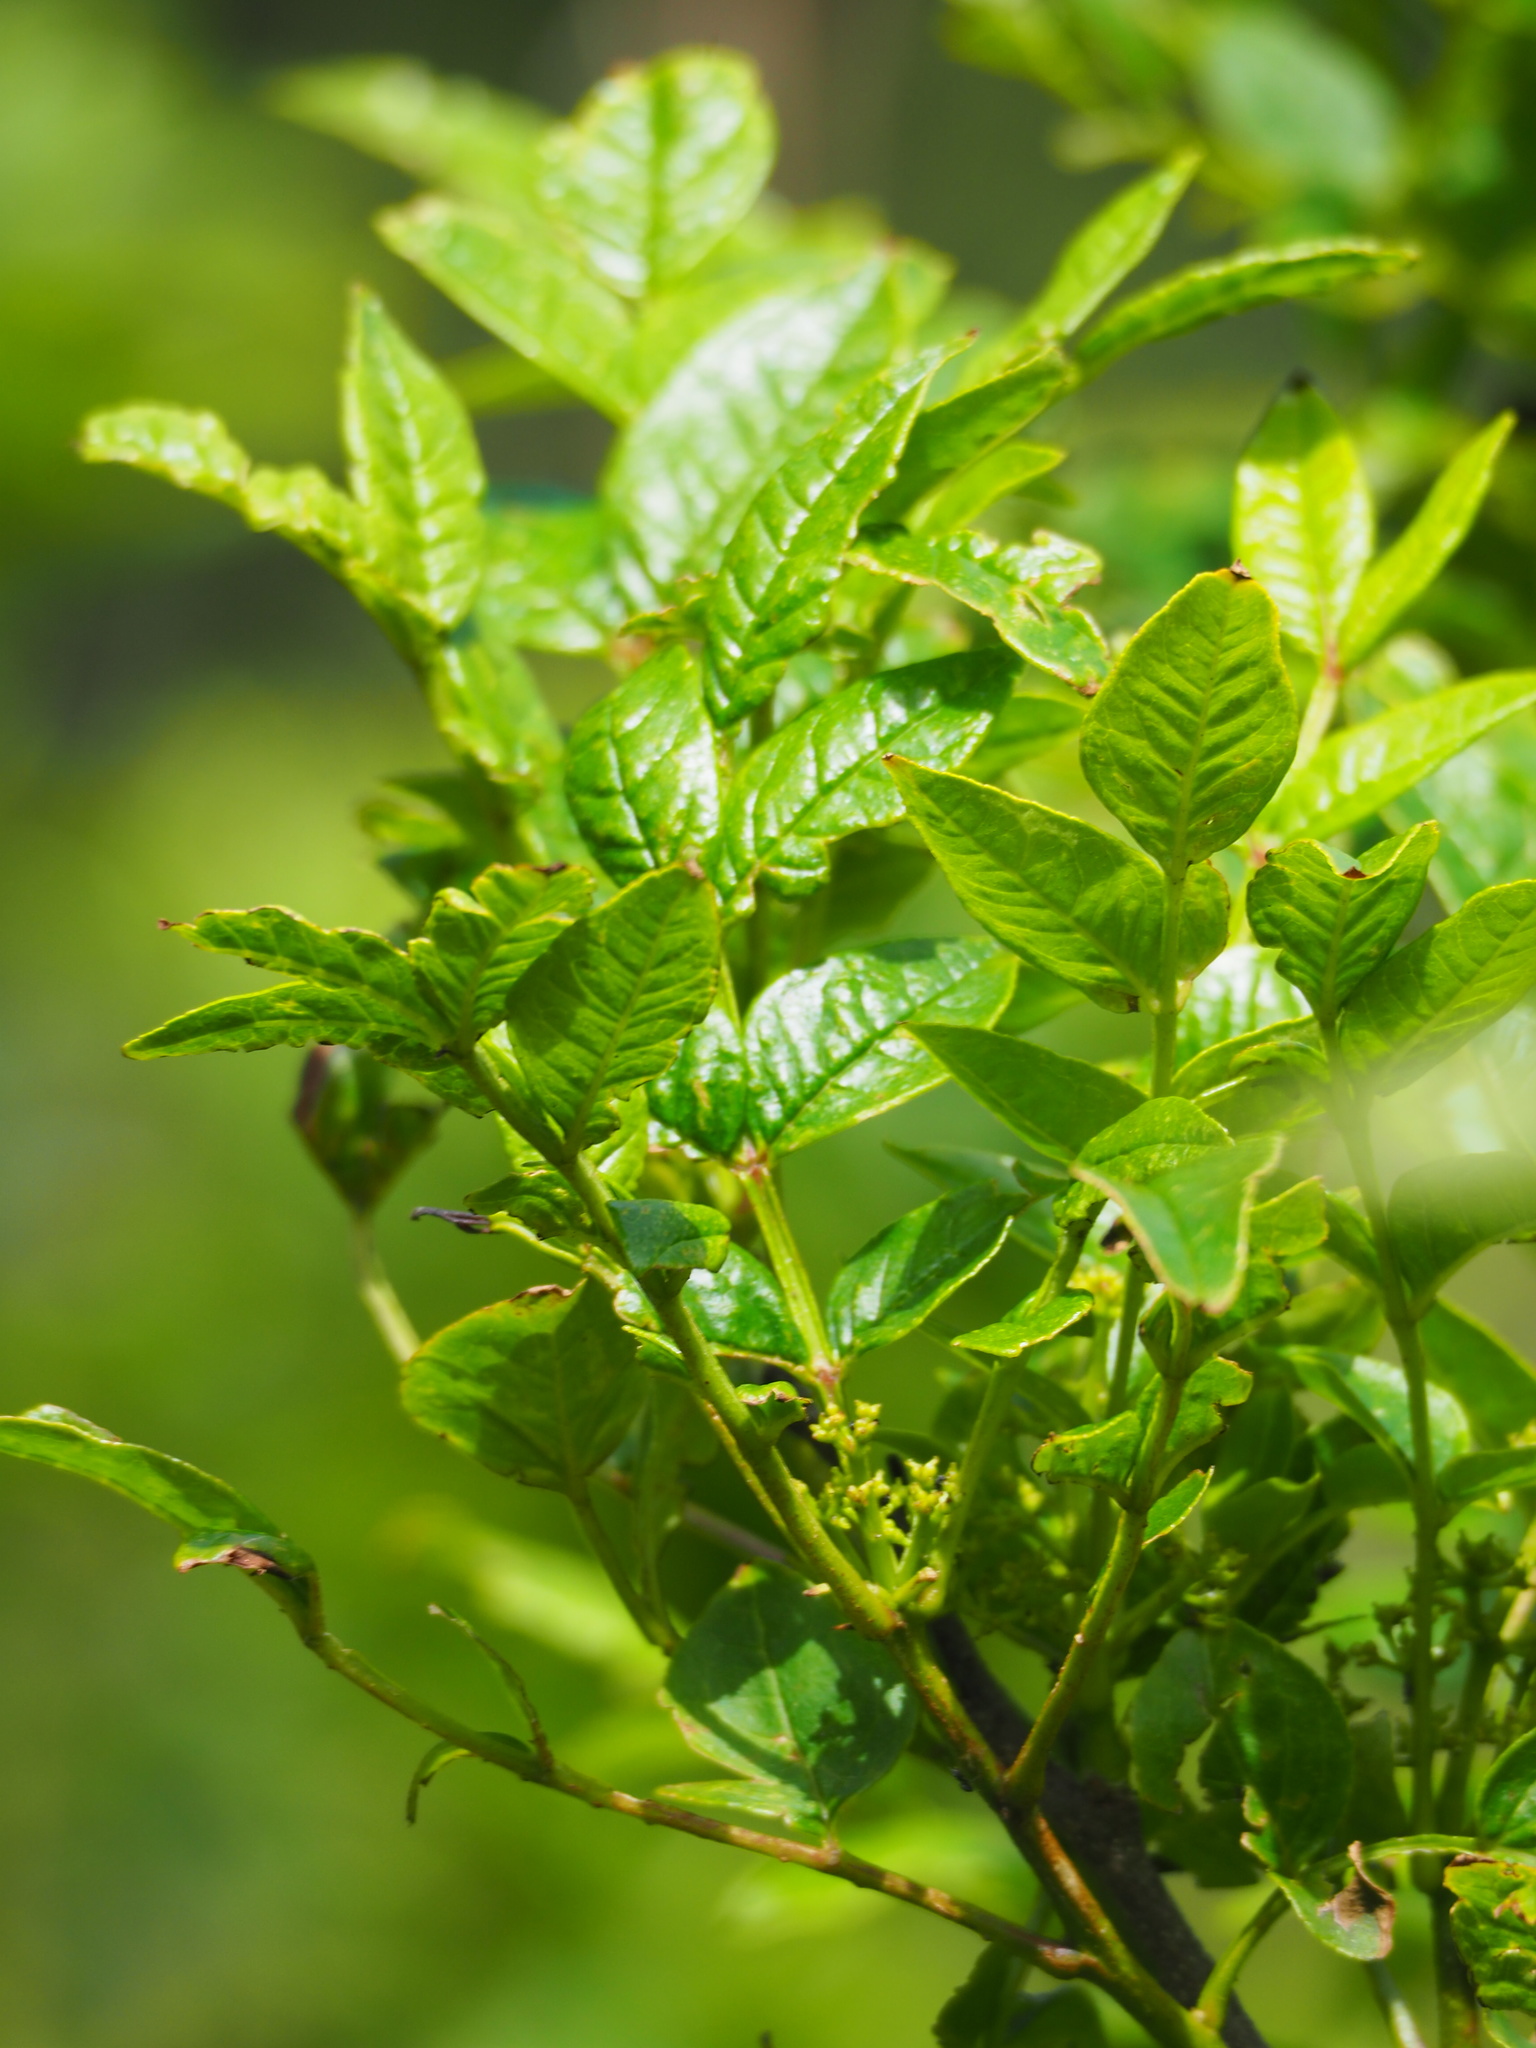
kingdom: Plantae
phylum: Tracheophyta
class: Magnoliopsida
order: Sapindales
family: Rutaceae
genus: Zanthoxylum
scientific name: Zanthoxylum simulans
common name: Chinese-pepper
